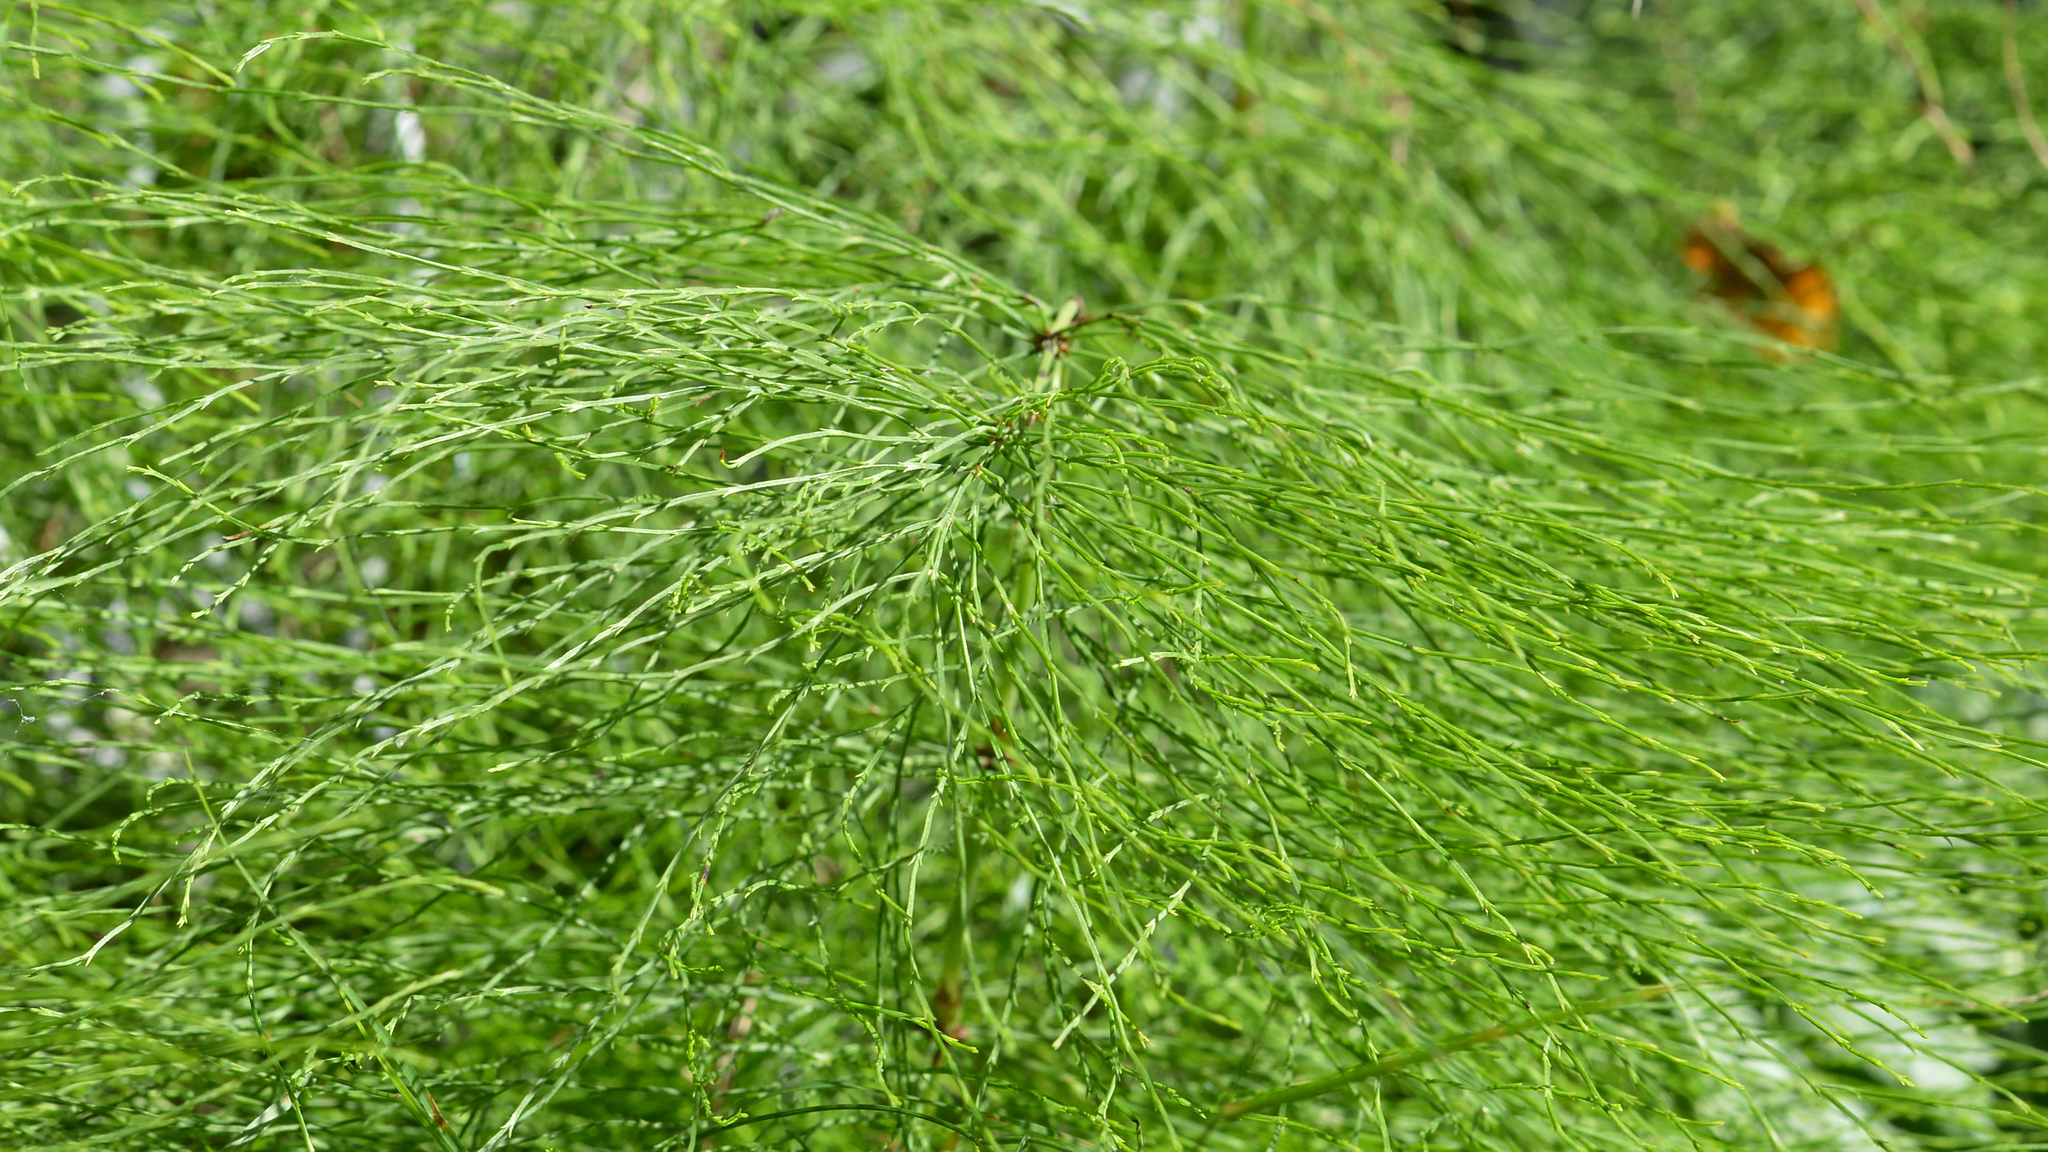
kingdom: Plantae
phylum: Tracheophyta
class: Polypodiopsida
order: Equisetales
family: Equisetaceae
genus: Equisetum
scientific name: Equisetum sylvaticum
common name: Wood horsetail
